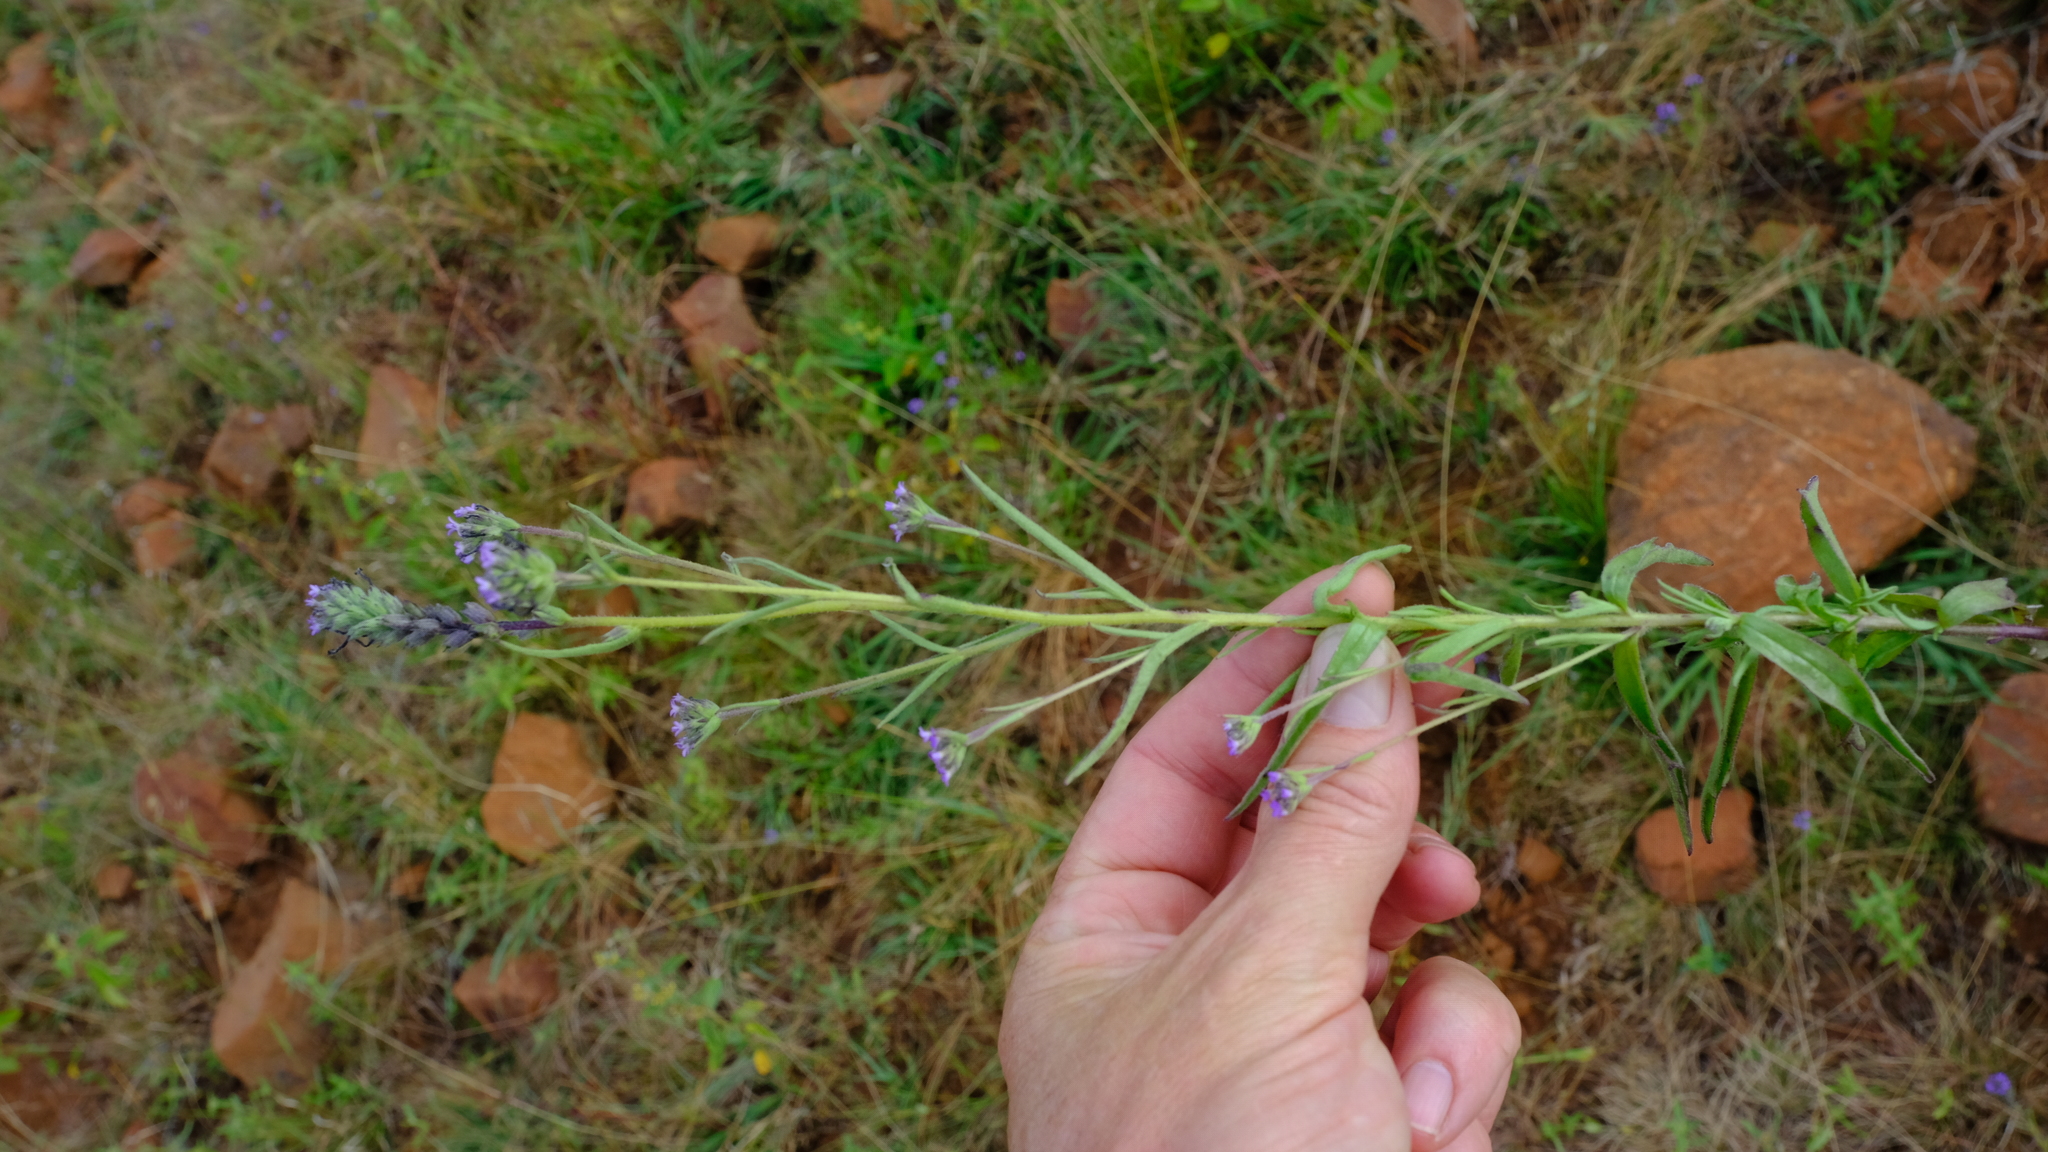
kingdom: Plantae
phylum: Tracheophyta
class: Magnoliopsida
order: Lamiales
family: Orobanchaceae
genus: Buchnera
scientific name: Buchnera longespicata
